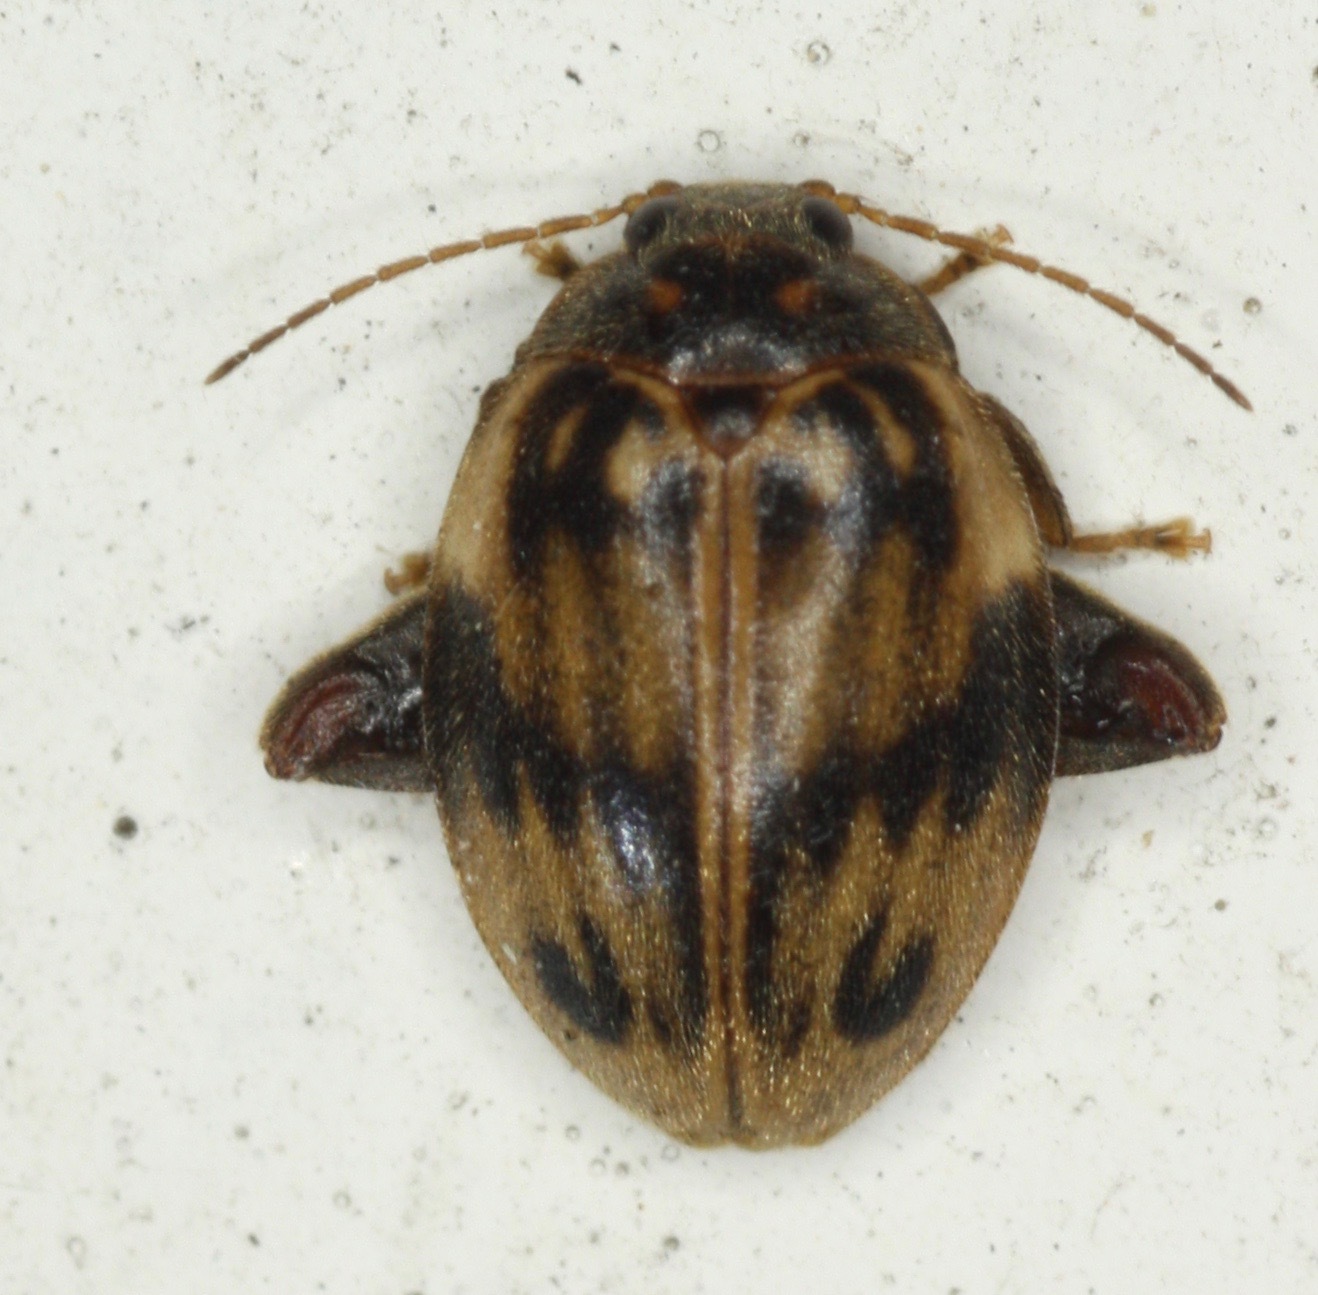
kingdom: Animalia
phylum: Arthropoda
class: Insecta
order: Coleoptera
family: Scirtidae
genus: Ora
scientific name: Ora texana
